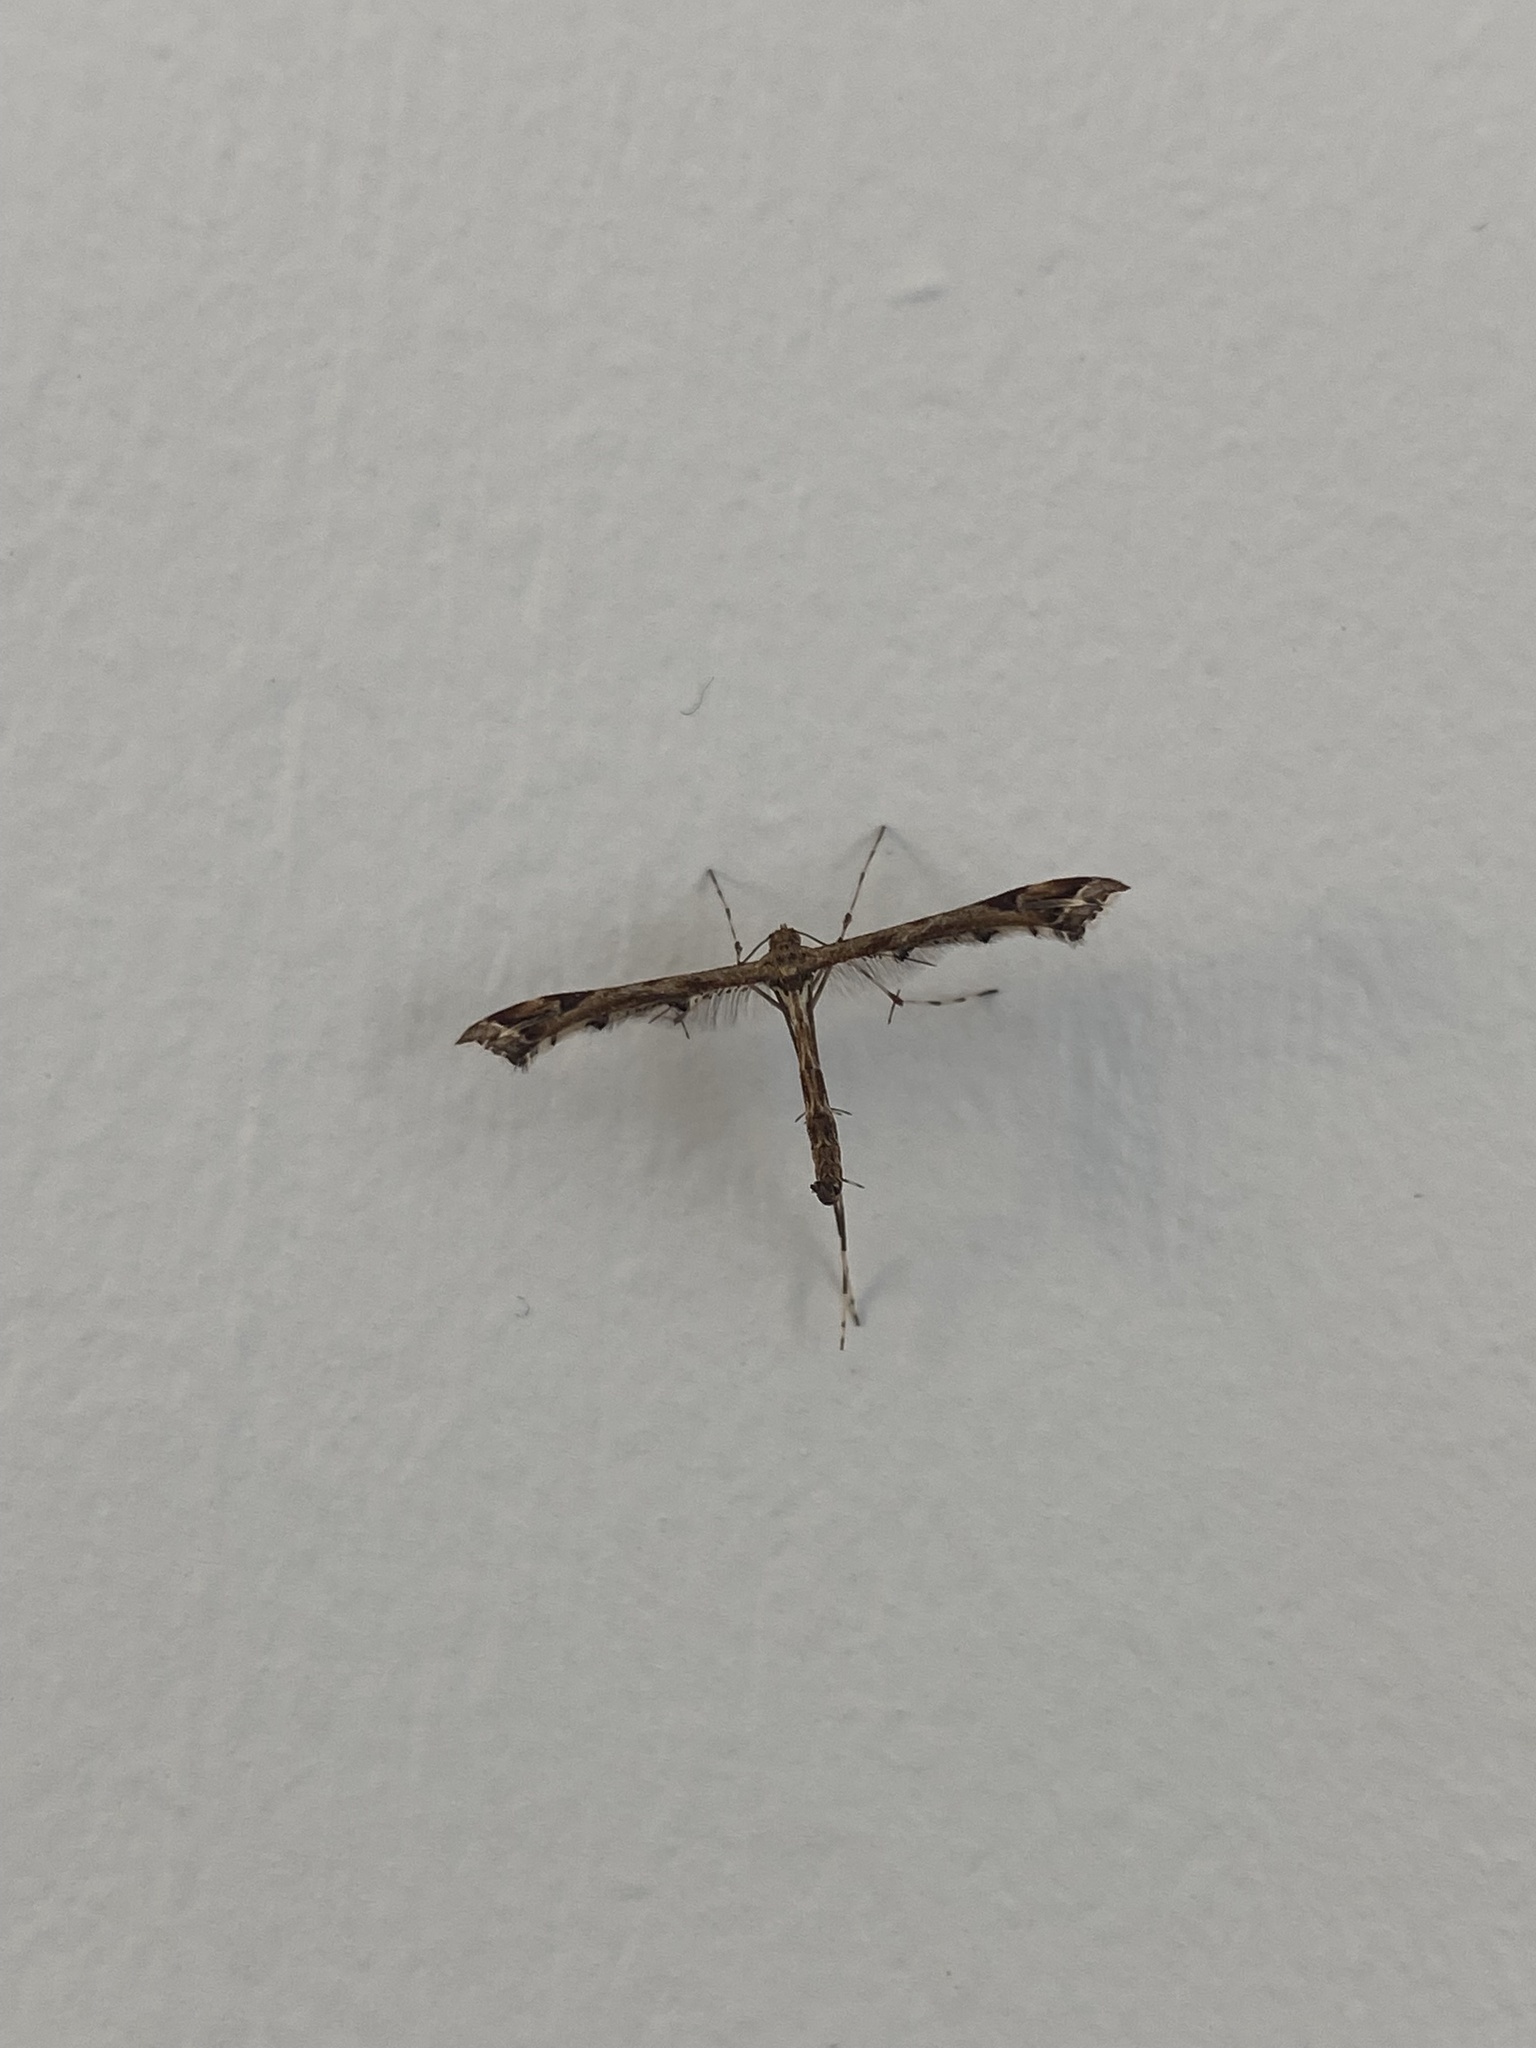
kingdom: Animalia
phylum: Arthropoda
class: Insecta
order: Lepidoptera
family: Pterophoridae
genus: Amblyptilia
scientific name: Amblyptilia acanthadactyla
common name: Beautiful plume
